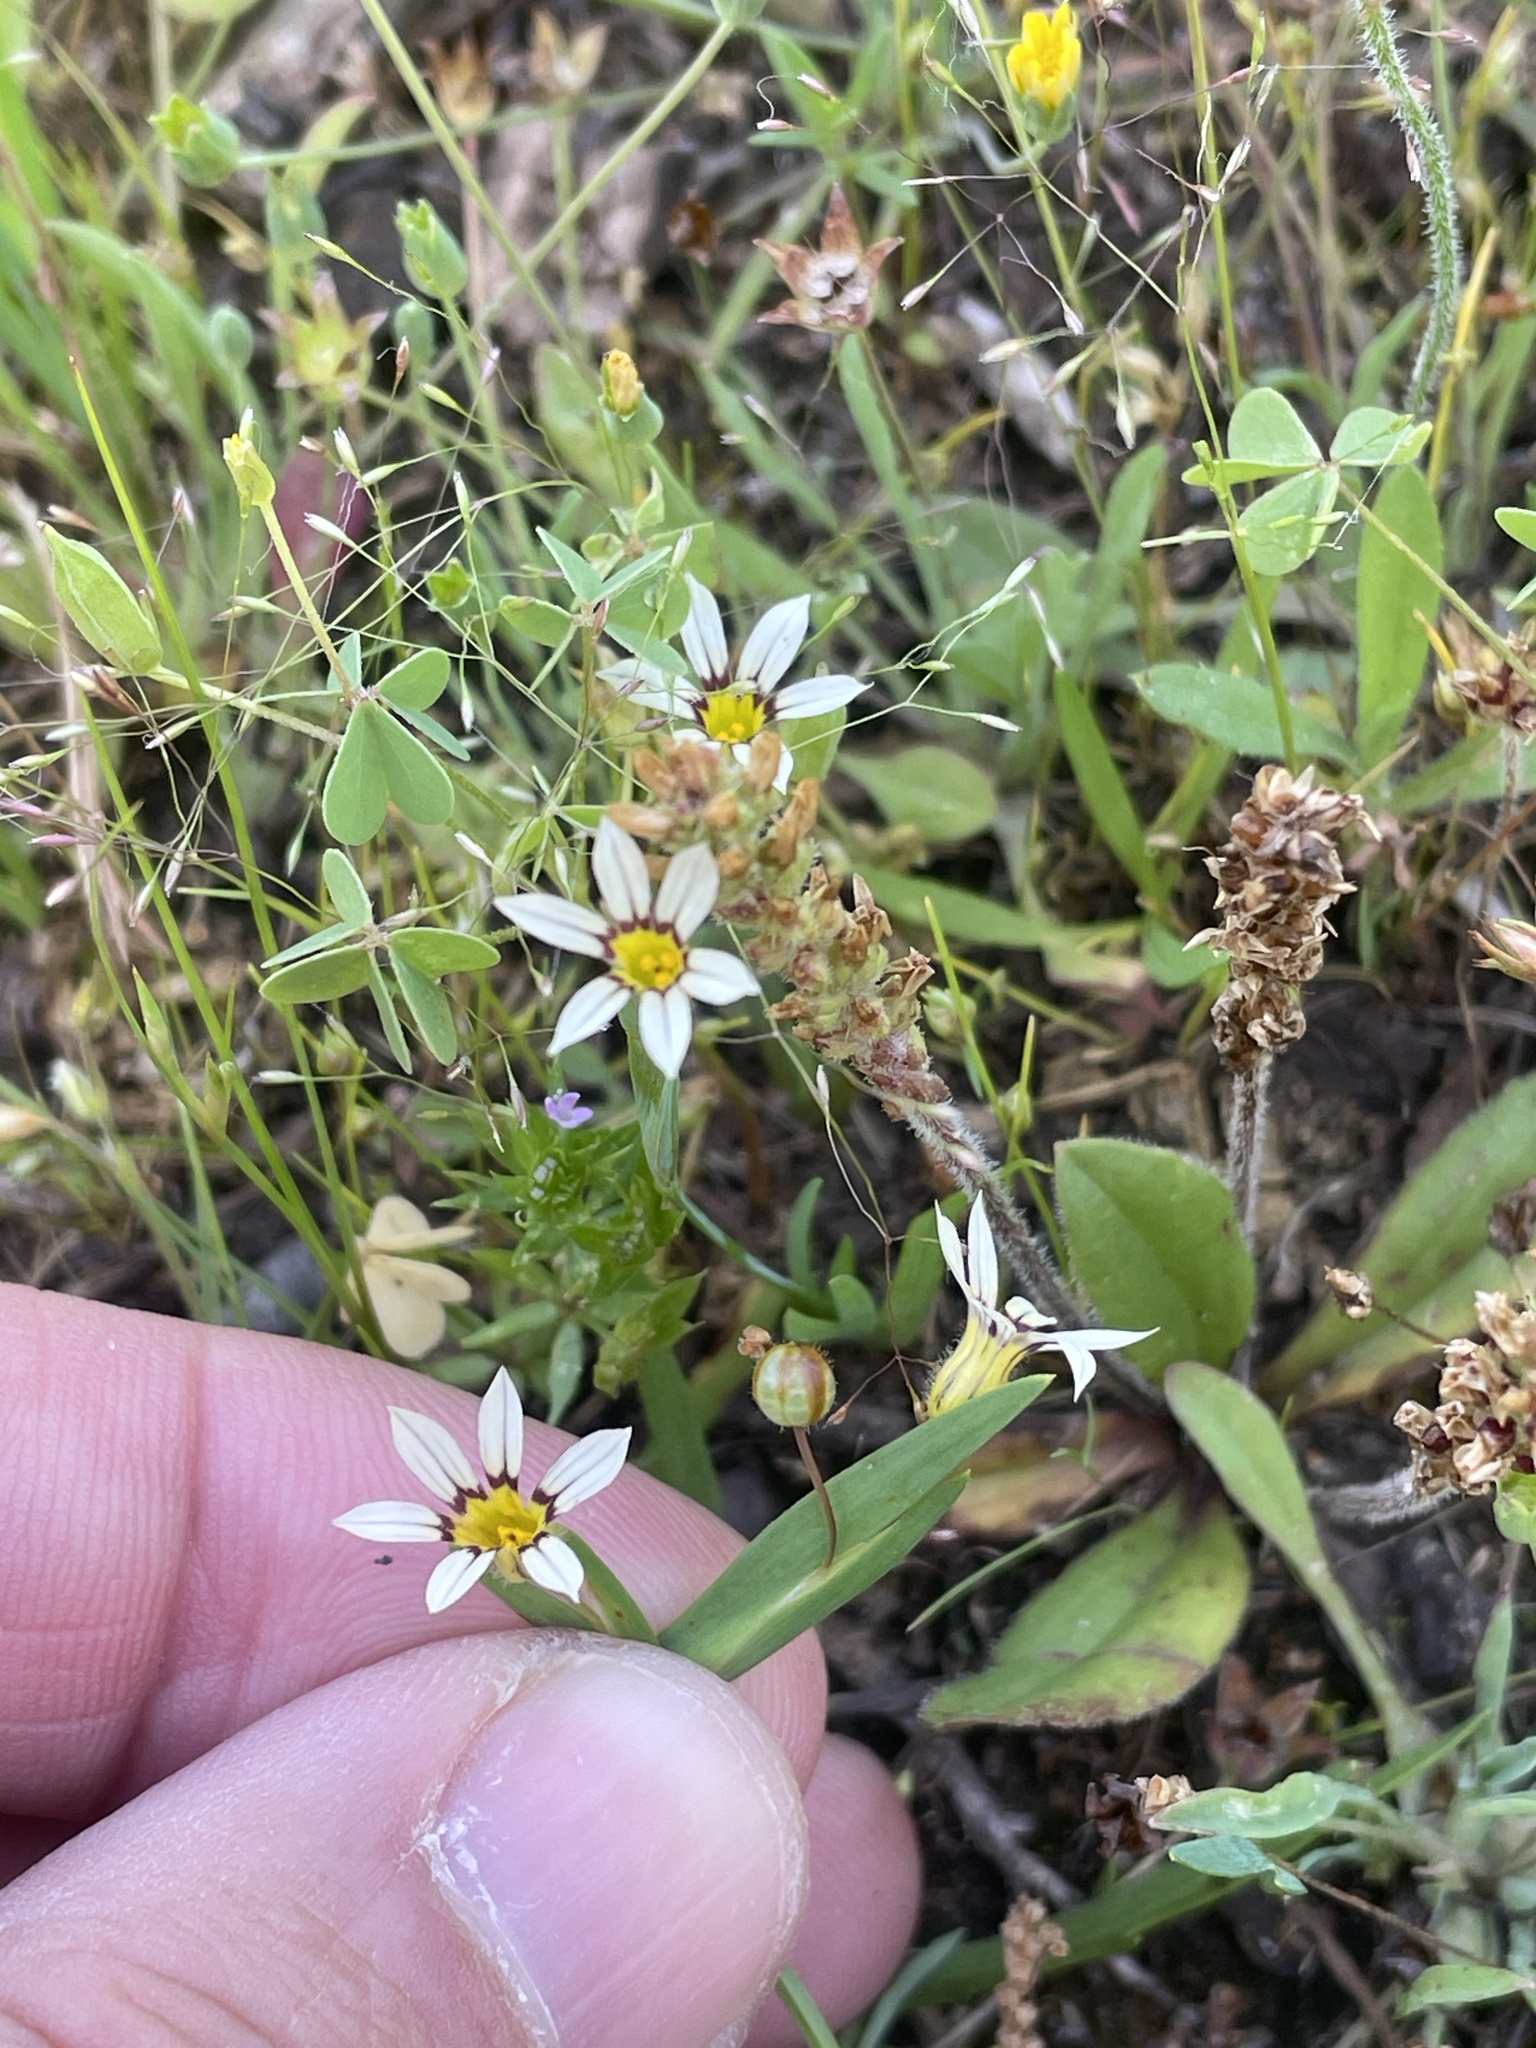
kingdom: Plantae
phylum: Tracheophyta
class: Liliopsida
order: Asparagales
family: Iridaceae
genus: Sisyrinchium
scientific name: Sisyrinchium micranthum
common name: Bermuda pigroot
